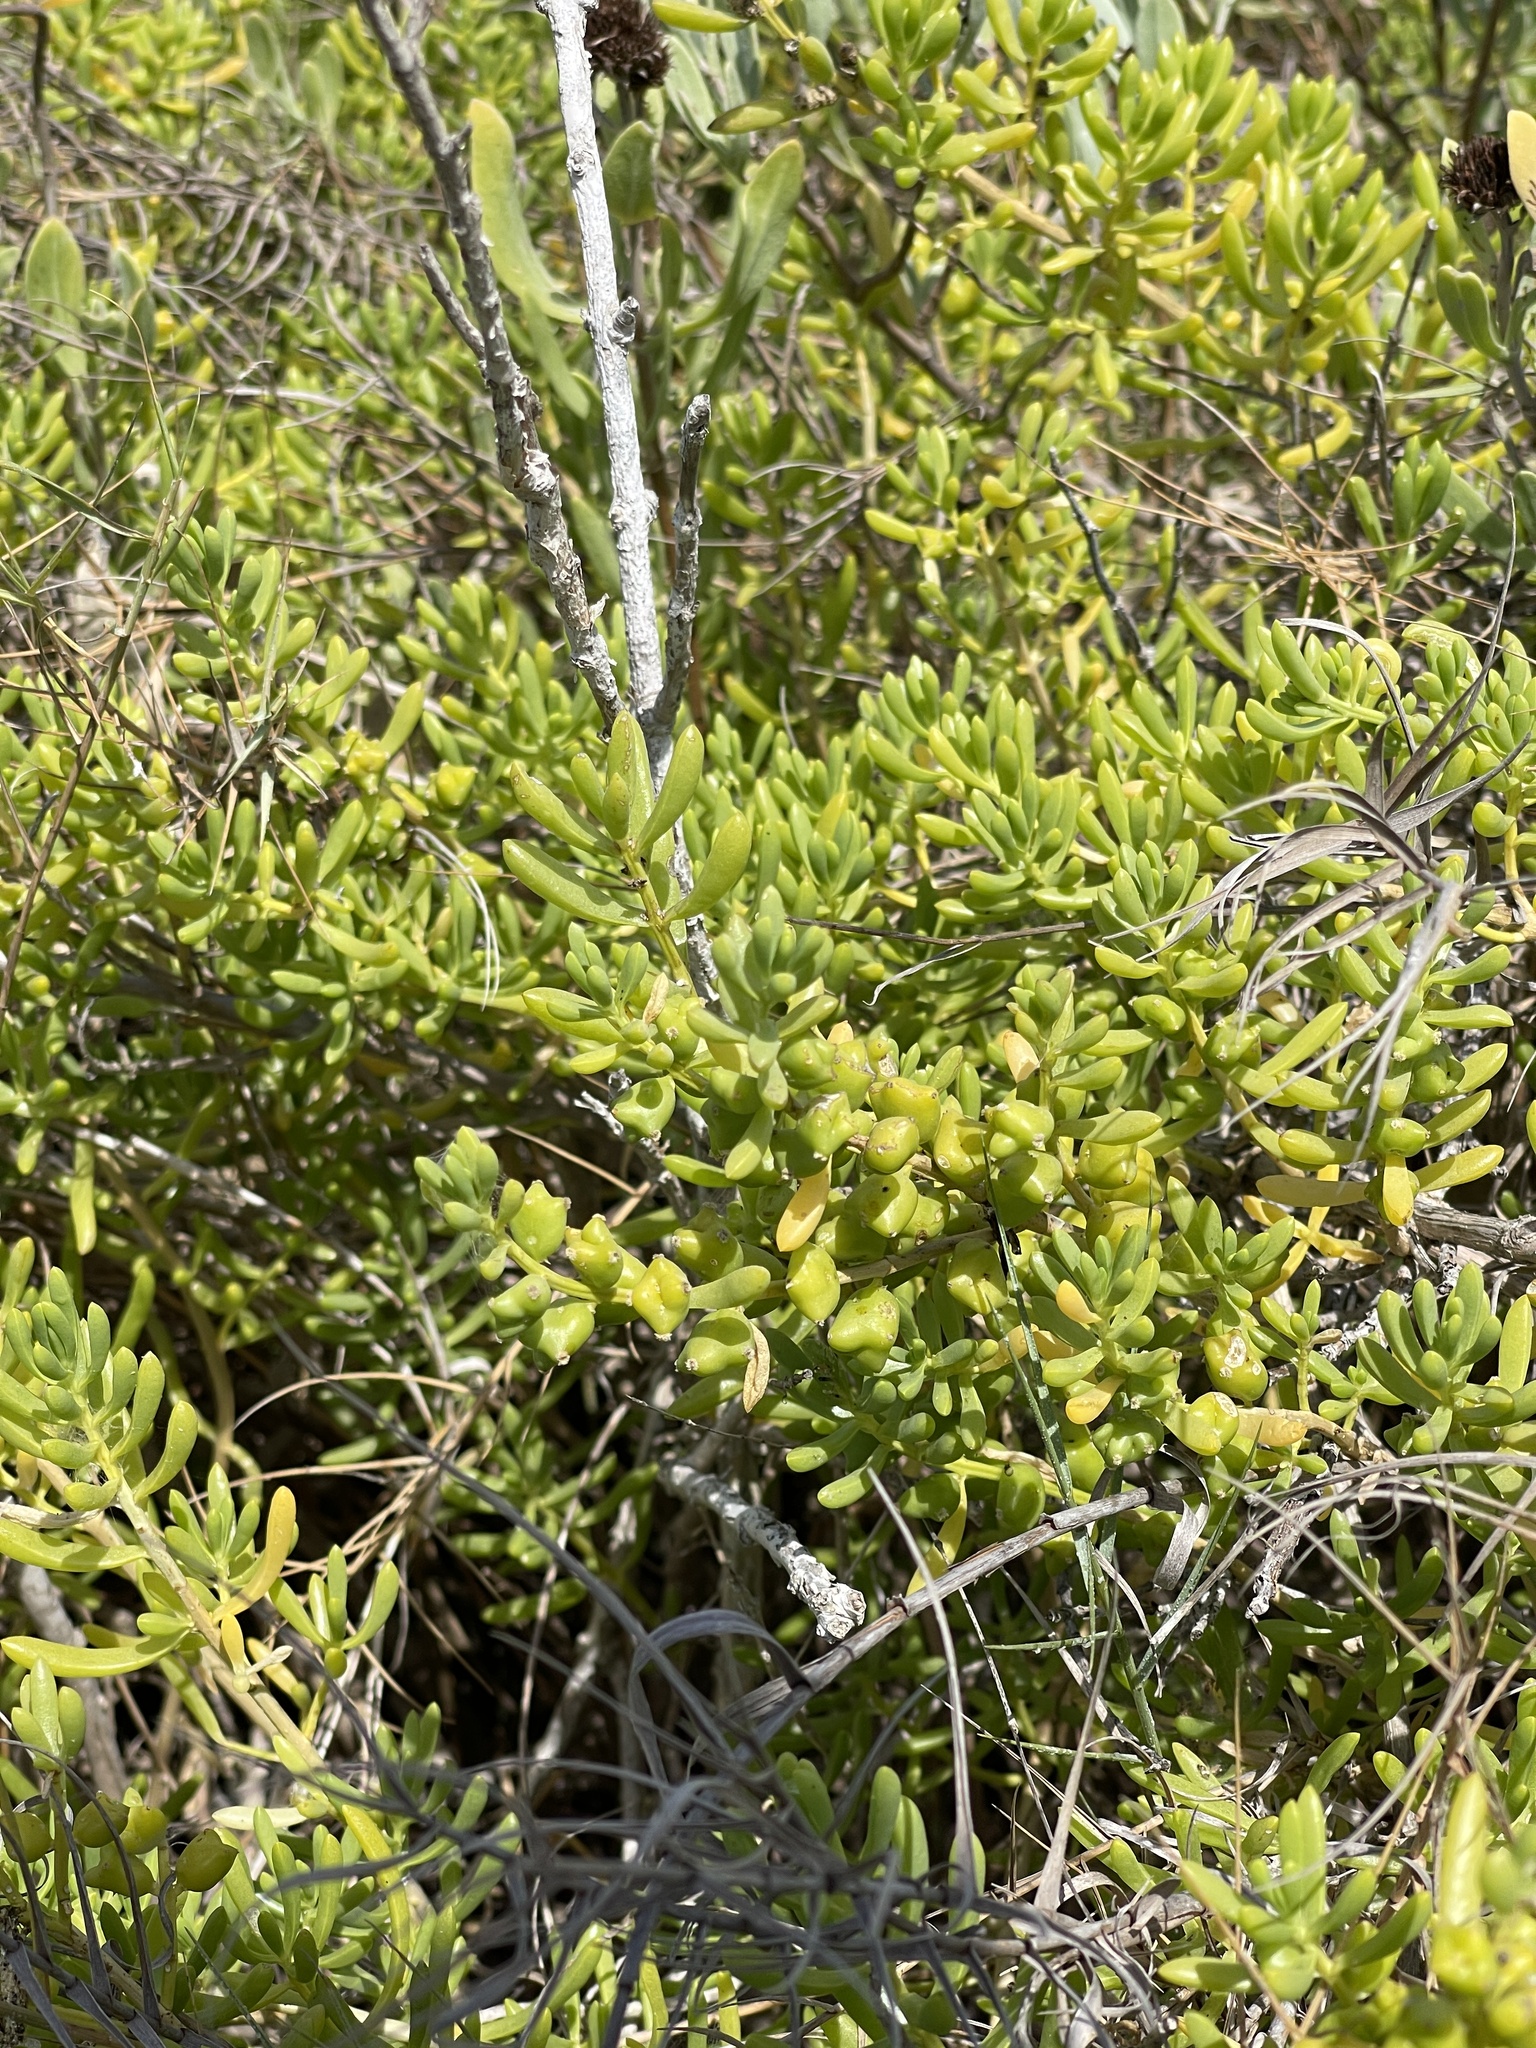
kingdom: Plantae
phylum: Tracheophyta
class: Magnoliopsida
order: Brassicales
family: Bataceae
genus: Batis
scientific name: Batis maritima
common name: Turtleweed
